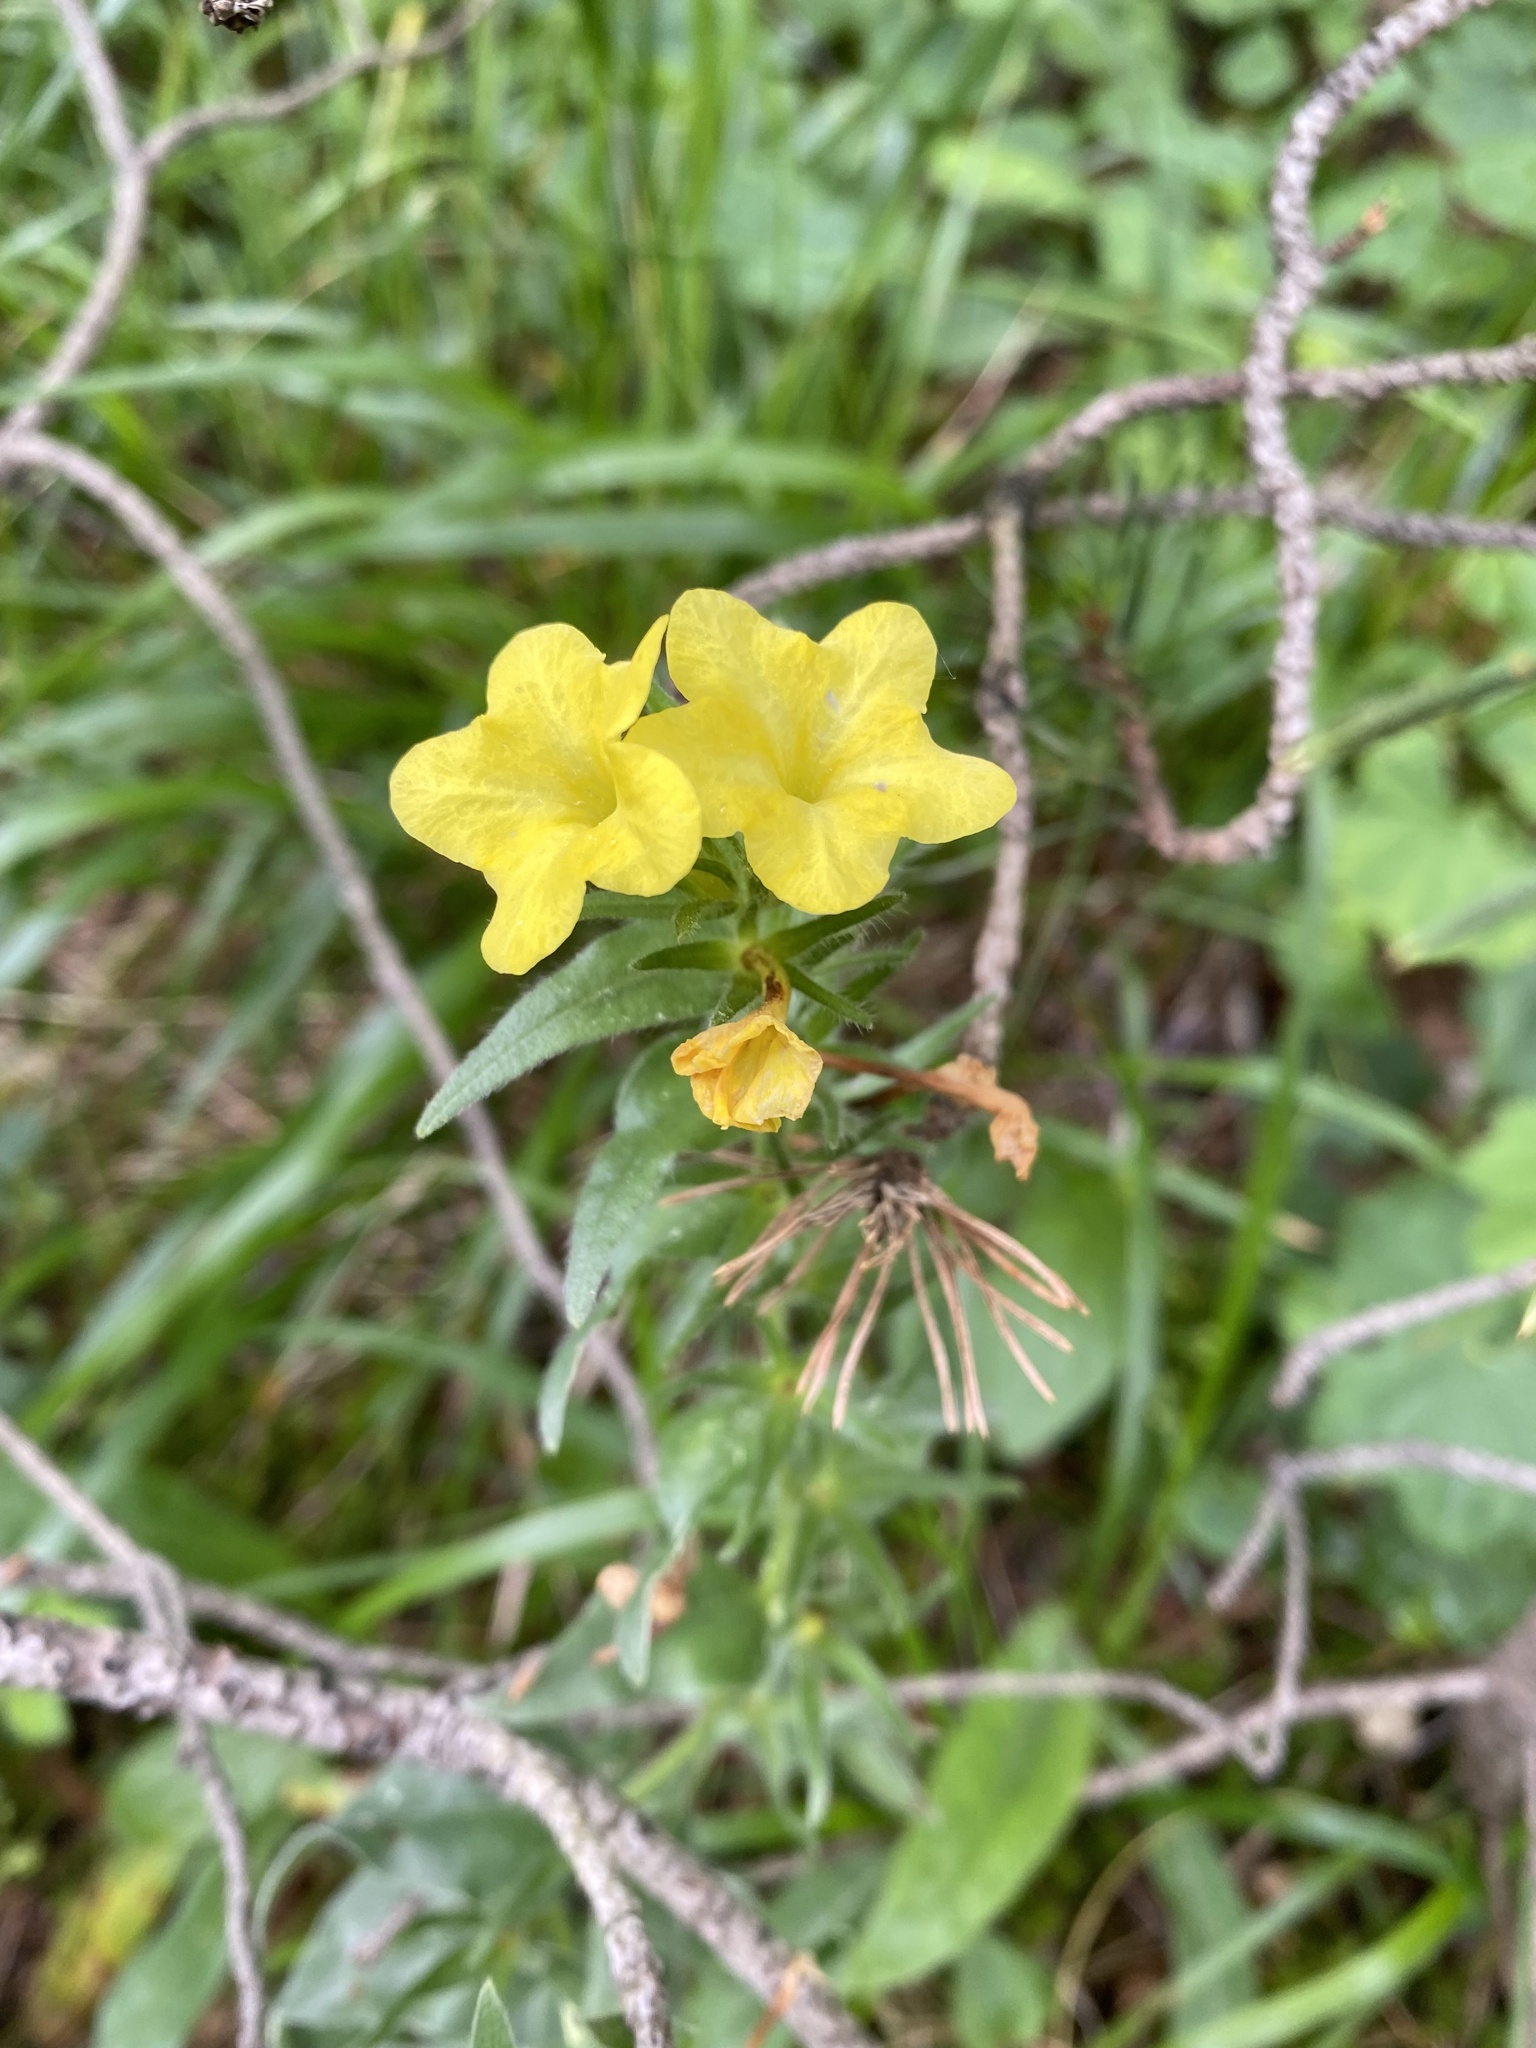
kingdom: Plantae
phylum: Tracheophyta
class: Magnoliopsida
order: Boraginales
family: Boraginaceae
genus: Huynhia
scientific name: Huynhia pulchra
